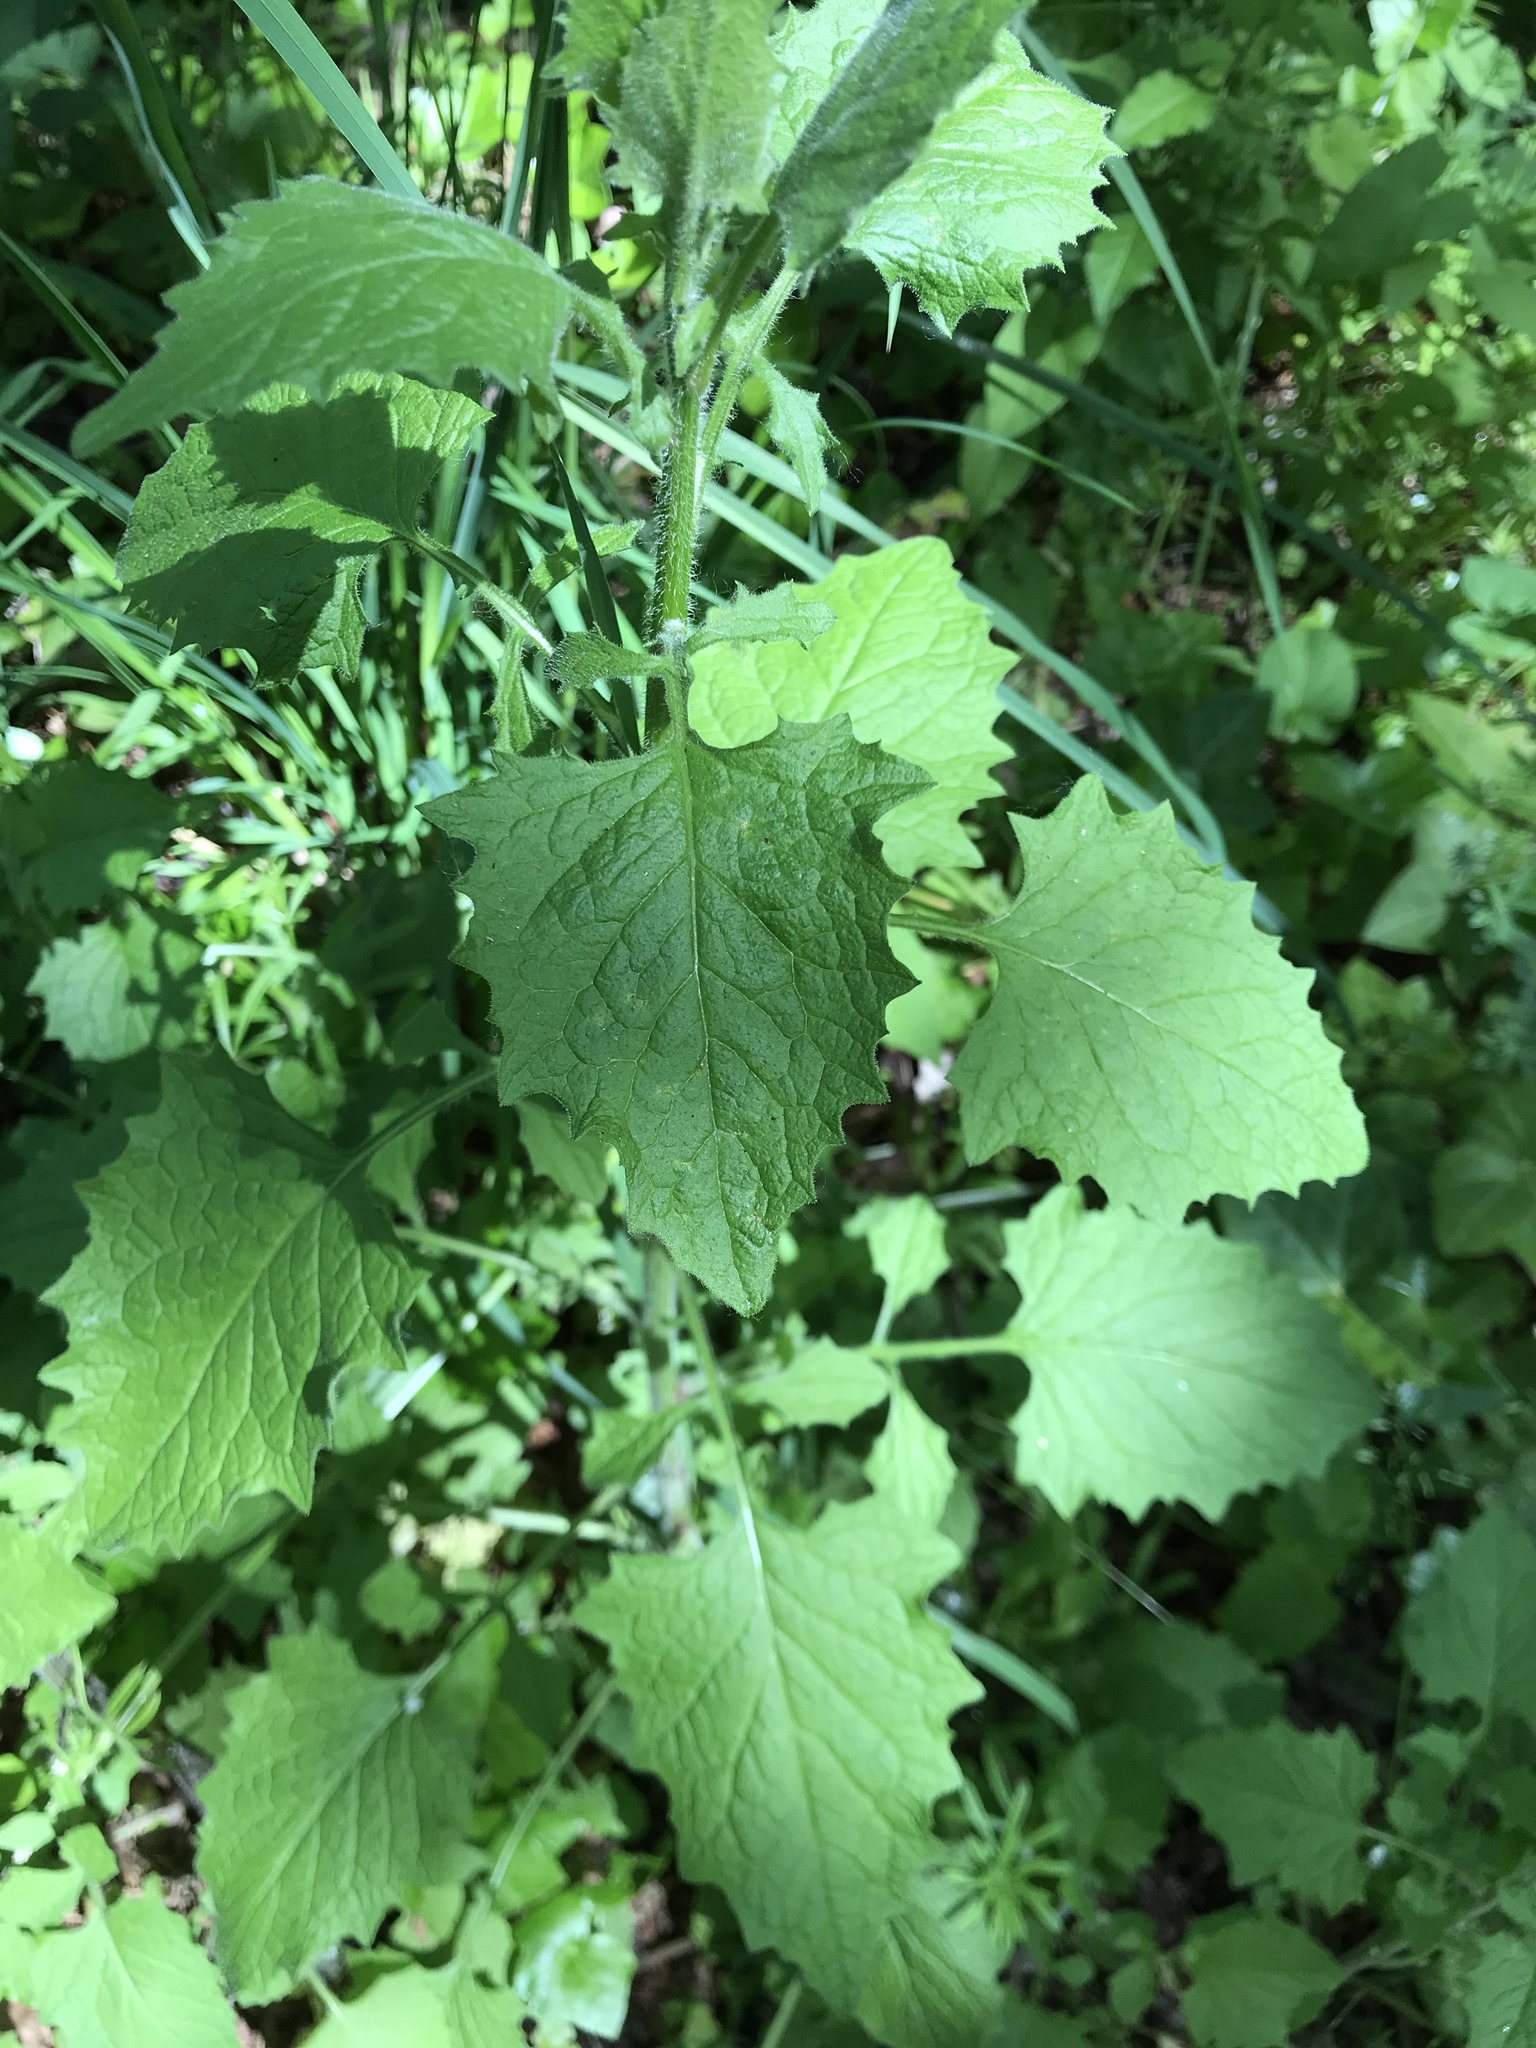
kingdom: Plantae
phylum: Tracheophyta
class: Magnoliopsida
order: Asterales
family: Asteraceae
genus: Lapsana
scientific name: Lapsana communis
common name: Nipplewort
